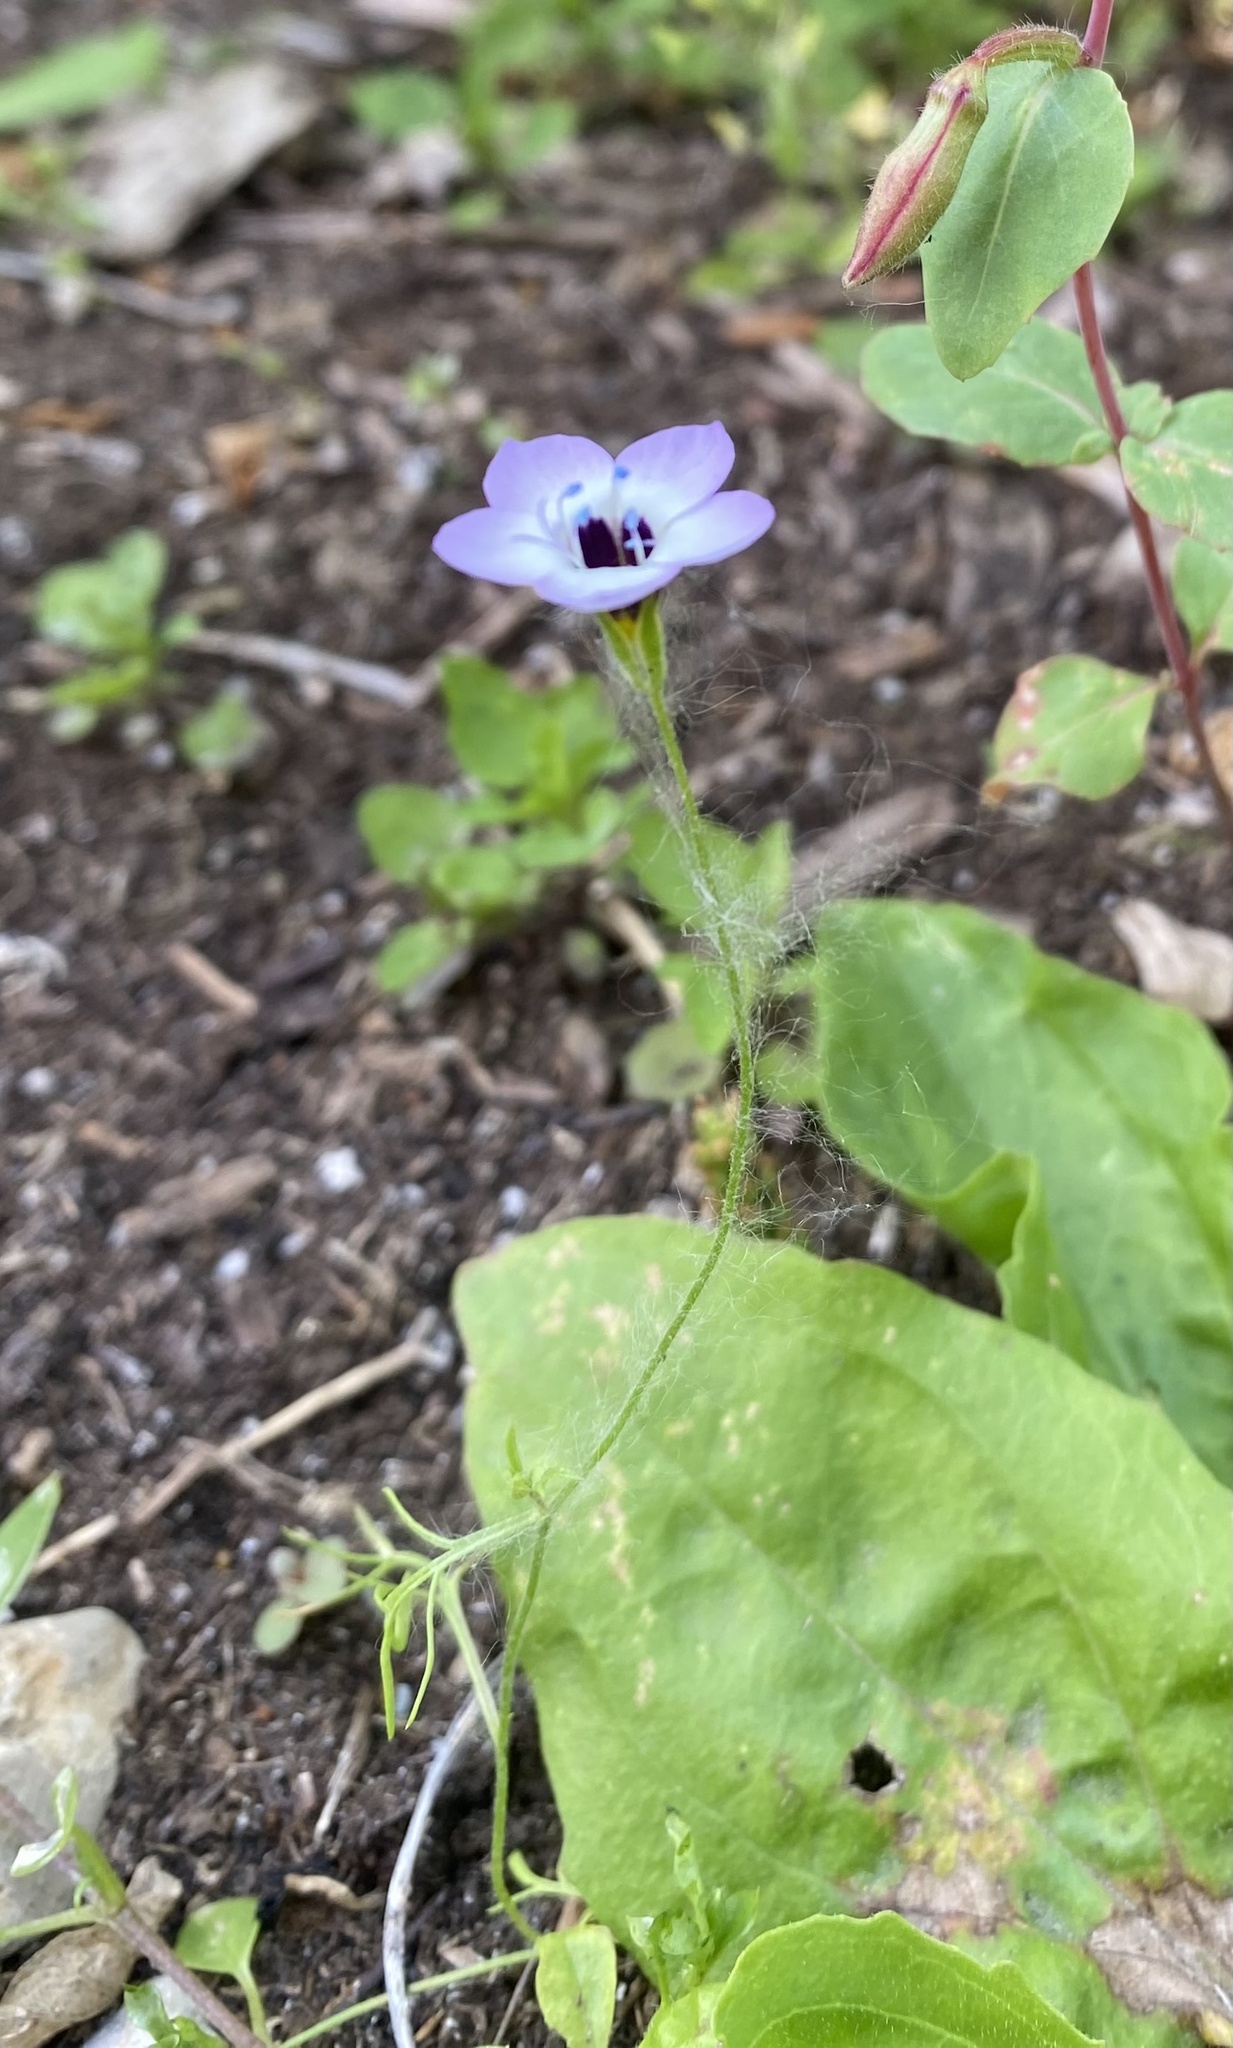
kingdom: Plantae
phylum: Tracheophyta
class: Magnoliopsida
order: Ericales
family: Polemoniaceae
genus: Gilia
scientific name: Gilia tricolor
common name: Bird's-eyes
